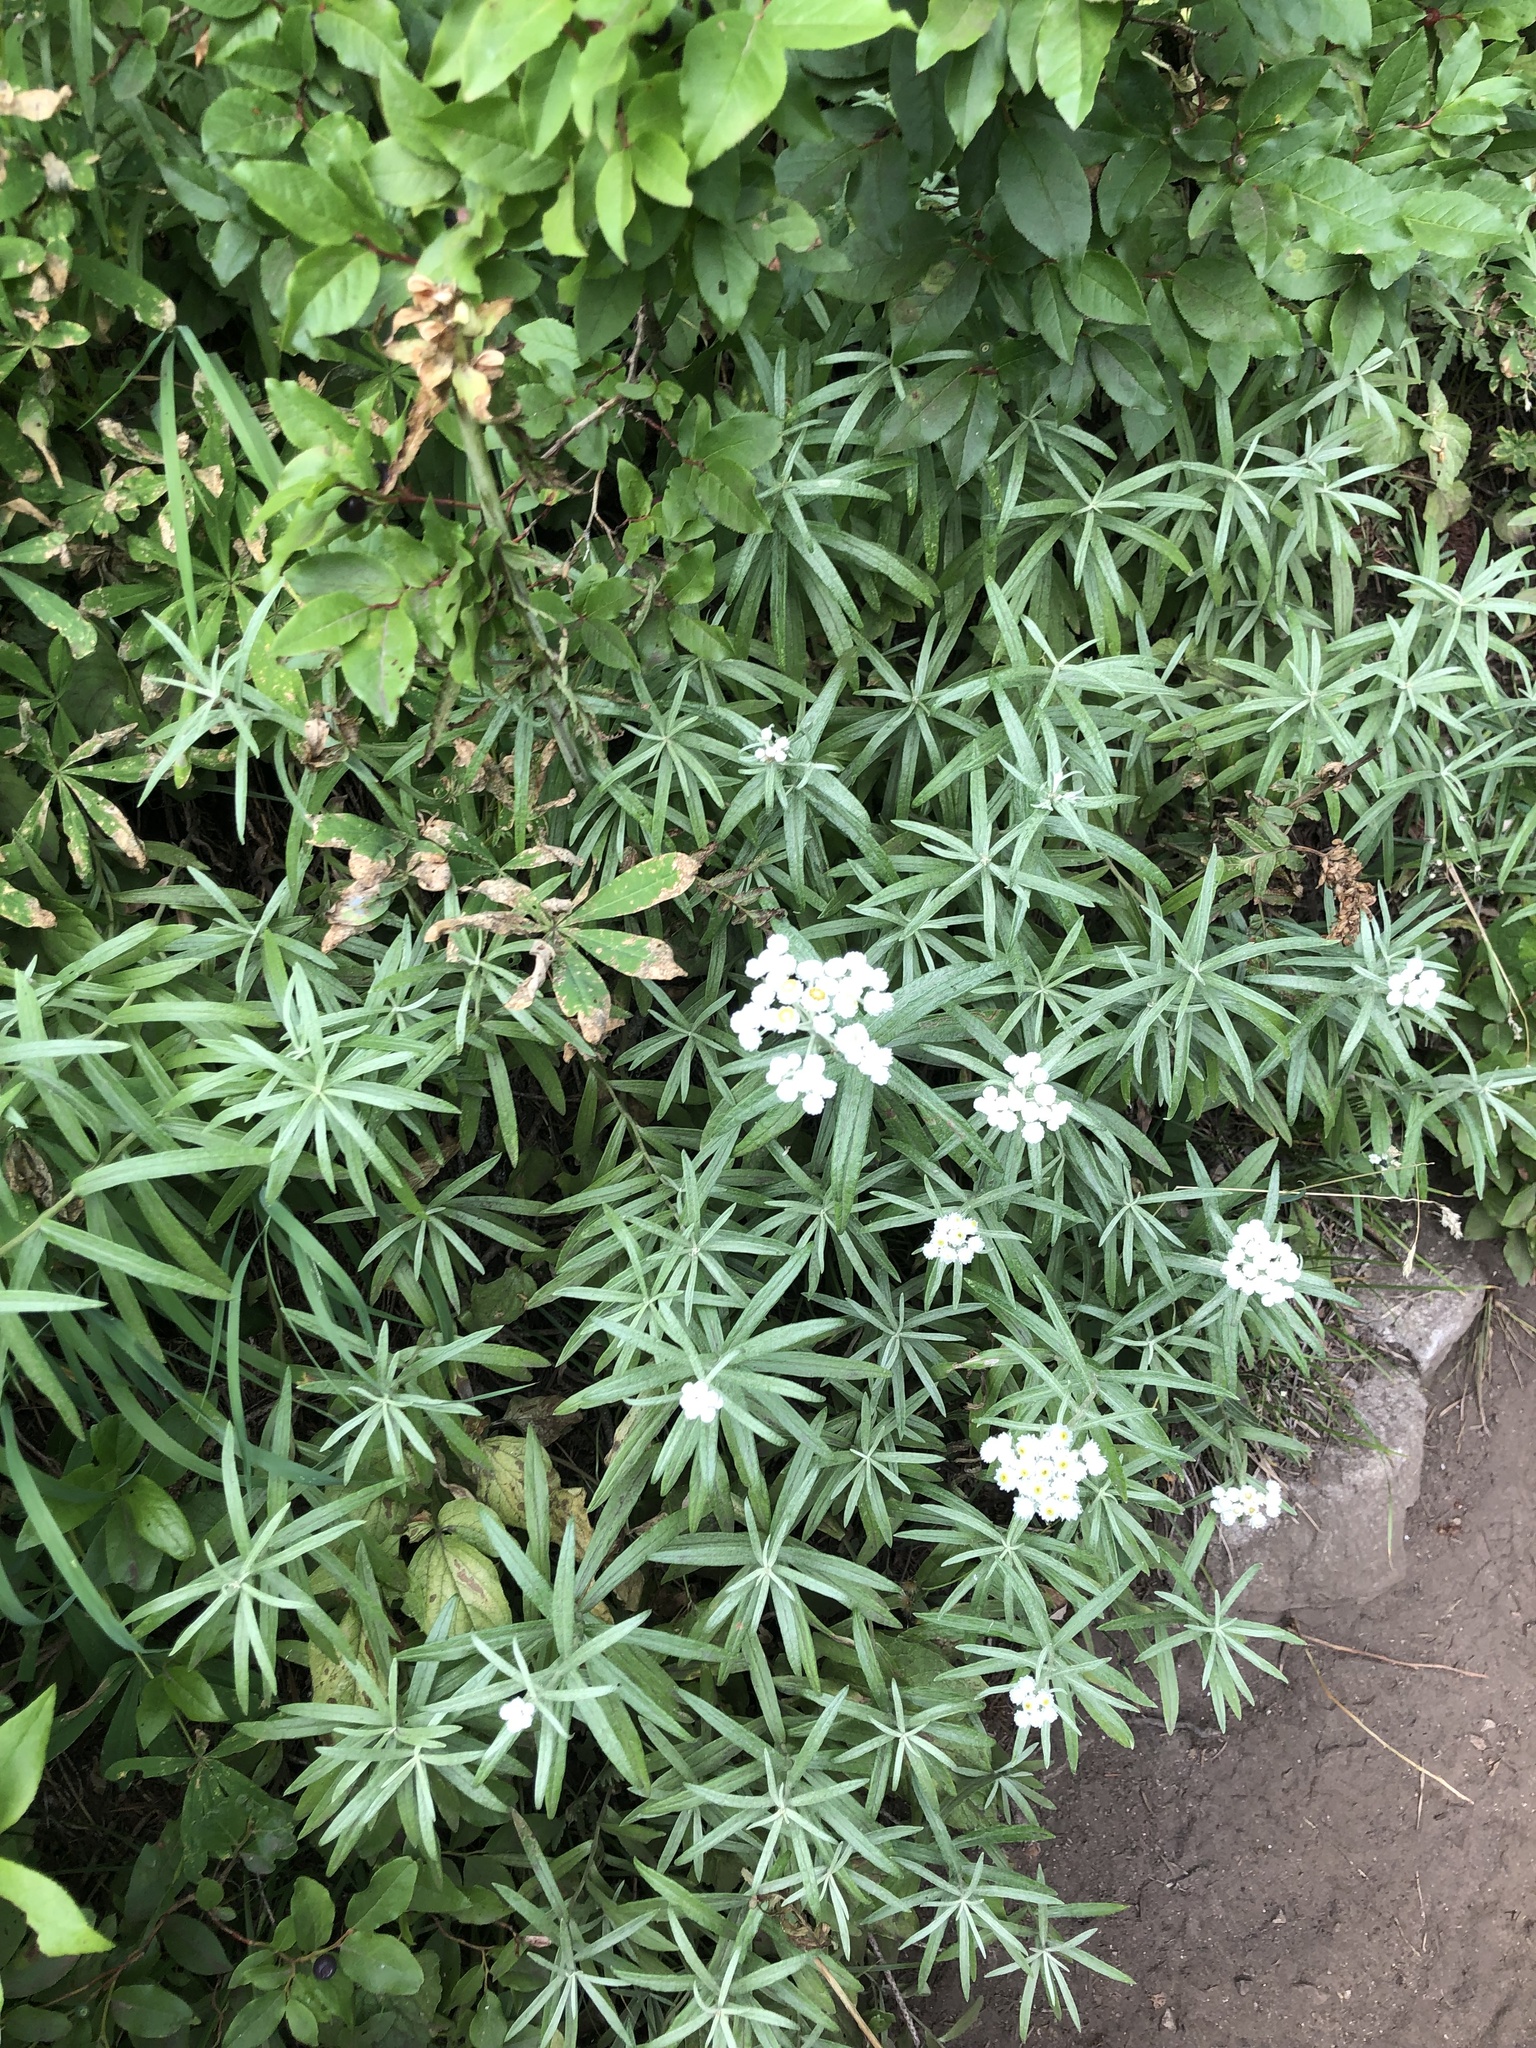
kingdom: Plantae
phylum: Tracheophyta
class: Magnoliopsida
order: Asterales
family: Asteraceae
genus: Anaphalis
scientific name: Anaphalis margaritacea
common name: Pearly everlasting
